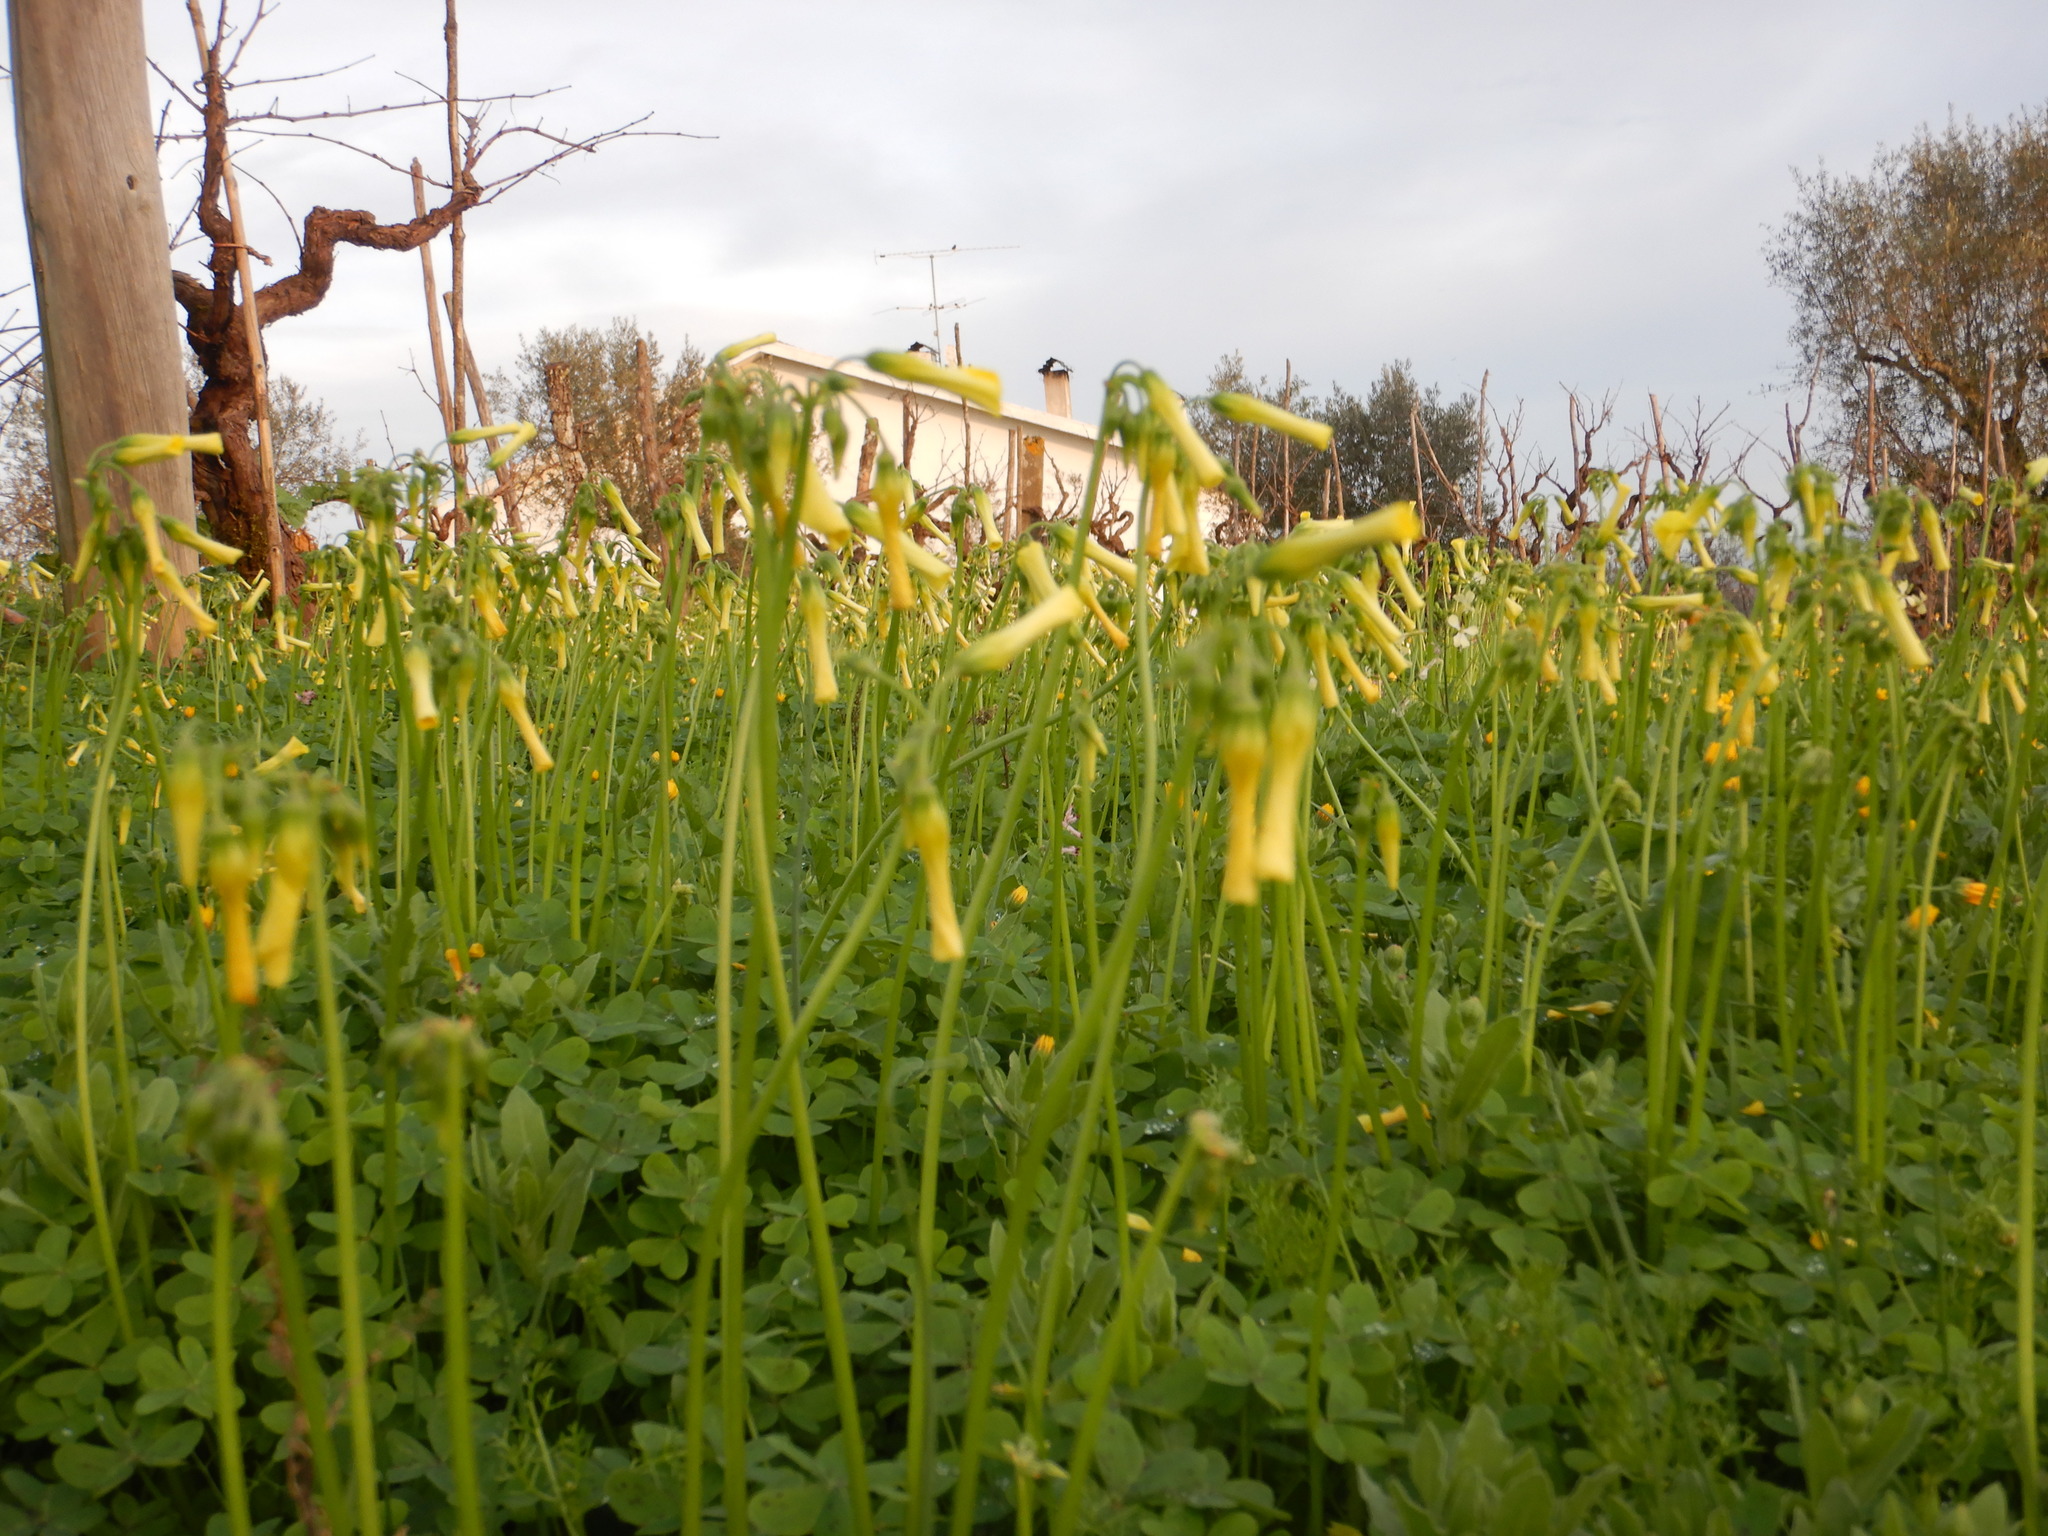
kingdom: Plantae
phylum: Tracheophyta
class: Magnoliopsida
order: Oxalidales
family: Oxalidaceae
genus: Oxalis
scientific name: Oxalis pes-caprae
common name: Bermuda-buttercup
